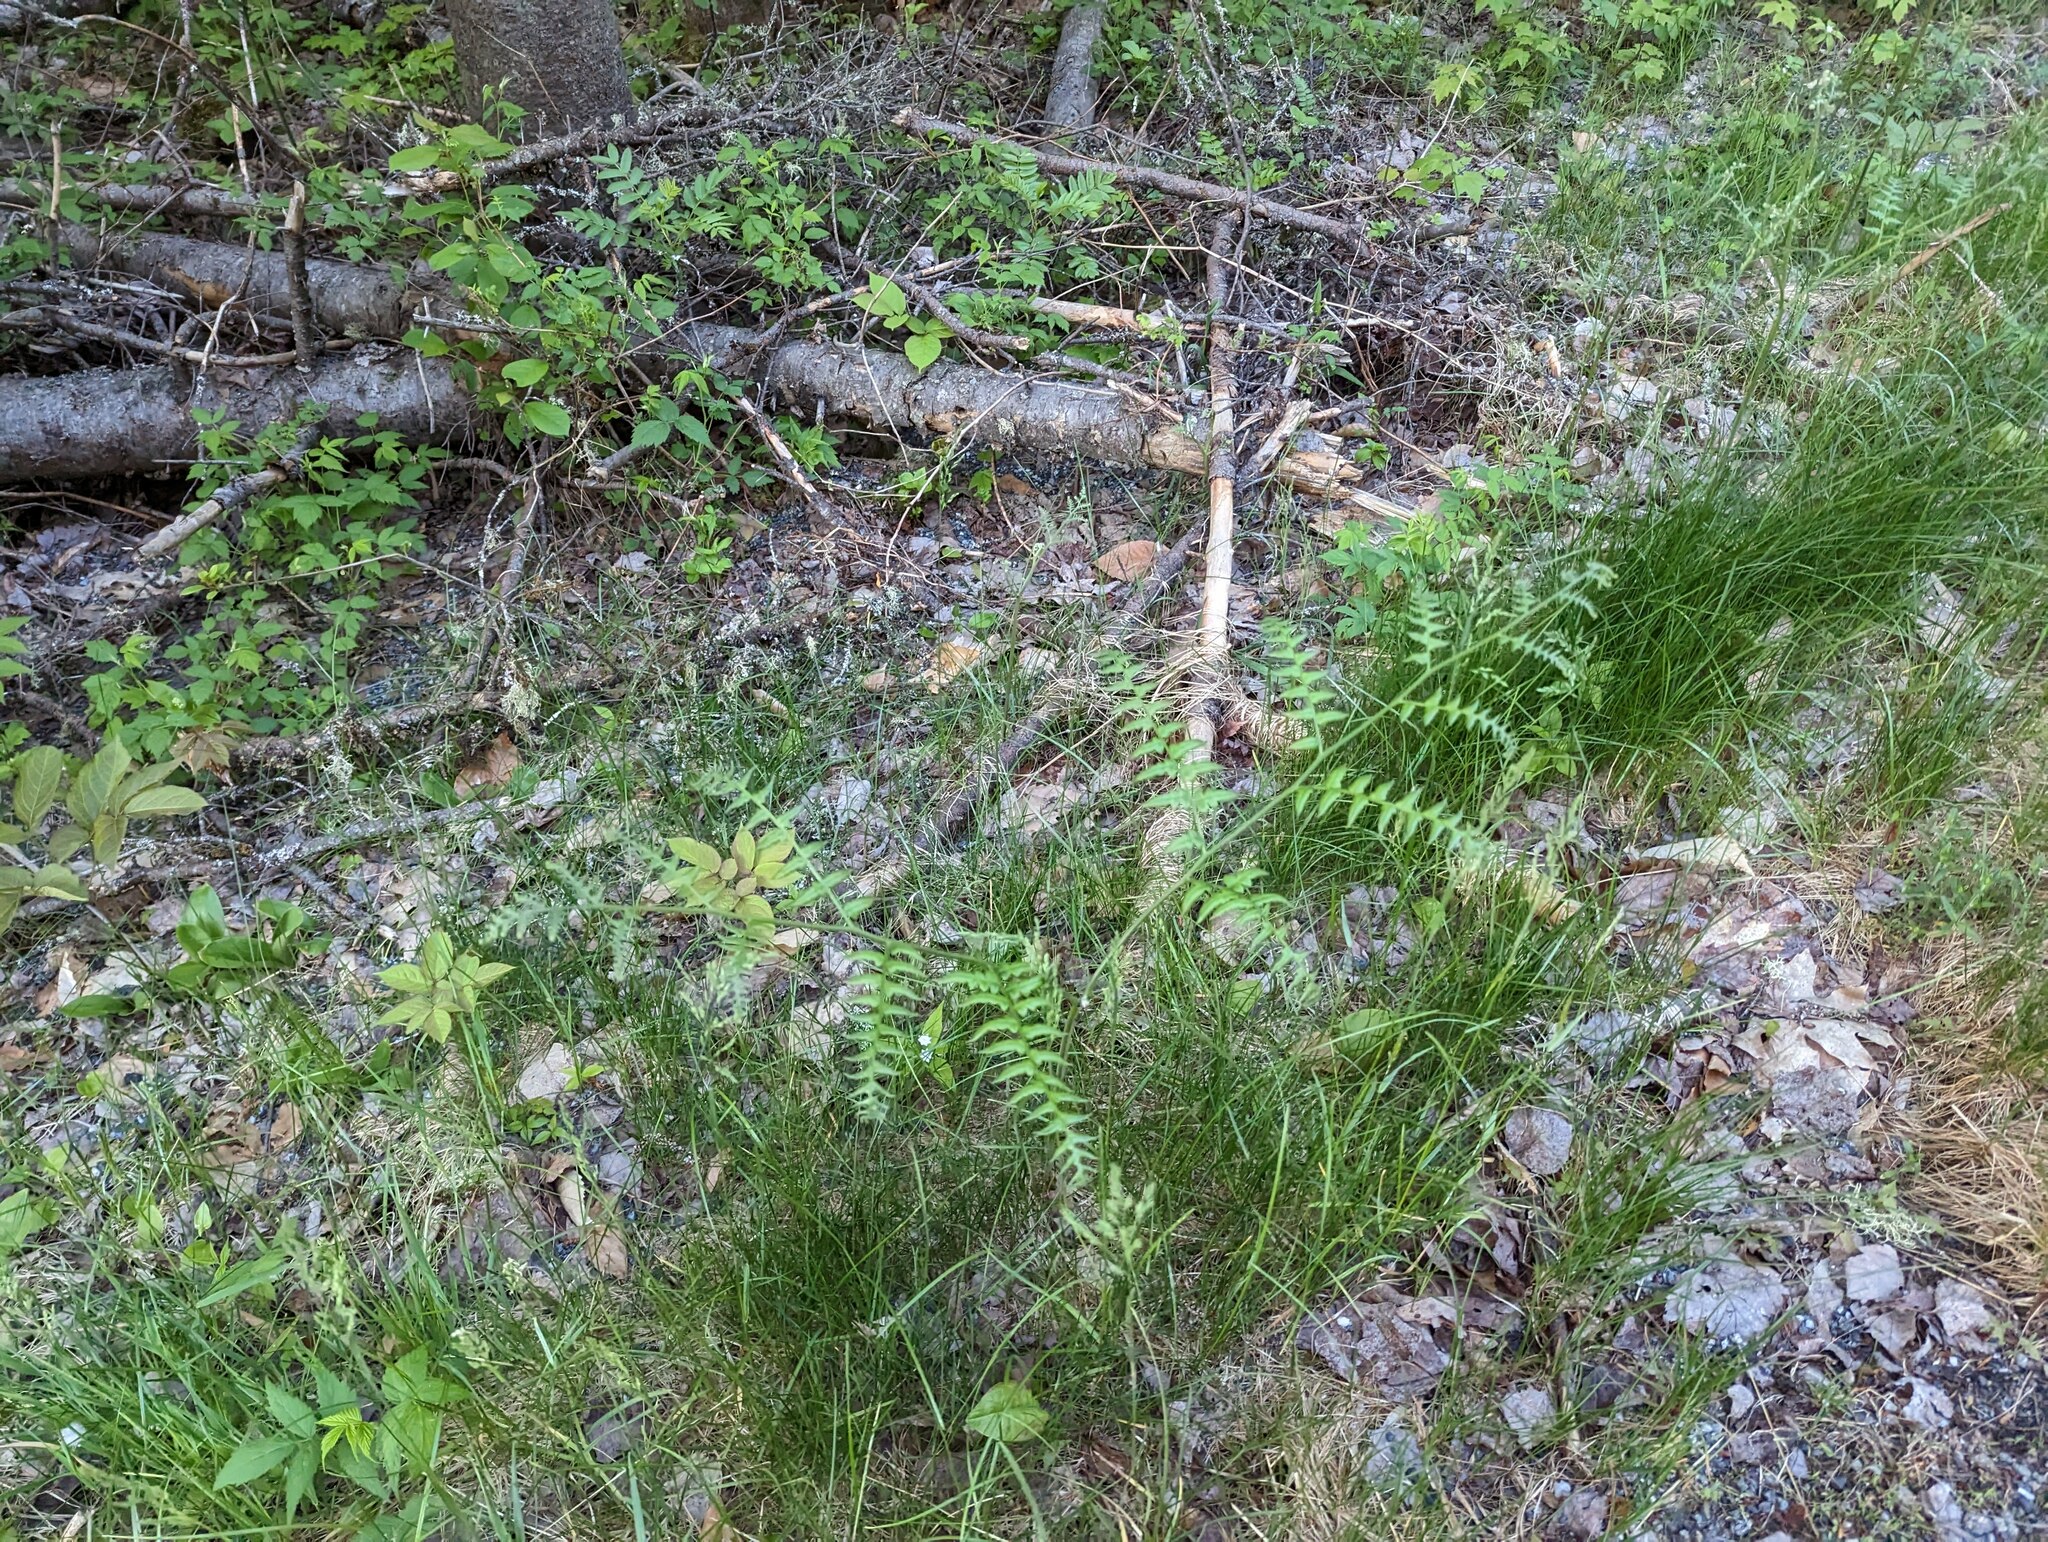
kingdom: Plantae
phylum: Tracheophyta
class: Polypodiopsida
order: Polypodiales
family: Dennstaedtiaceae
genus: Pteridium
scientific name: Pteridium aquilinum
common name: Bracken
